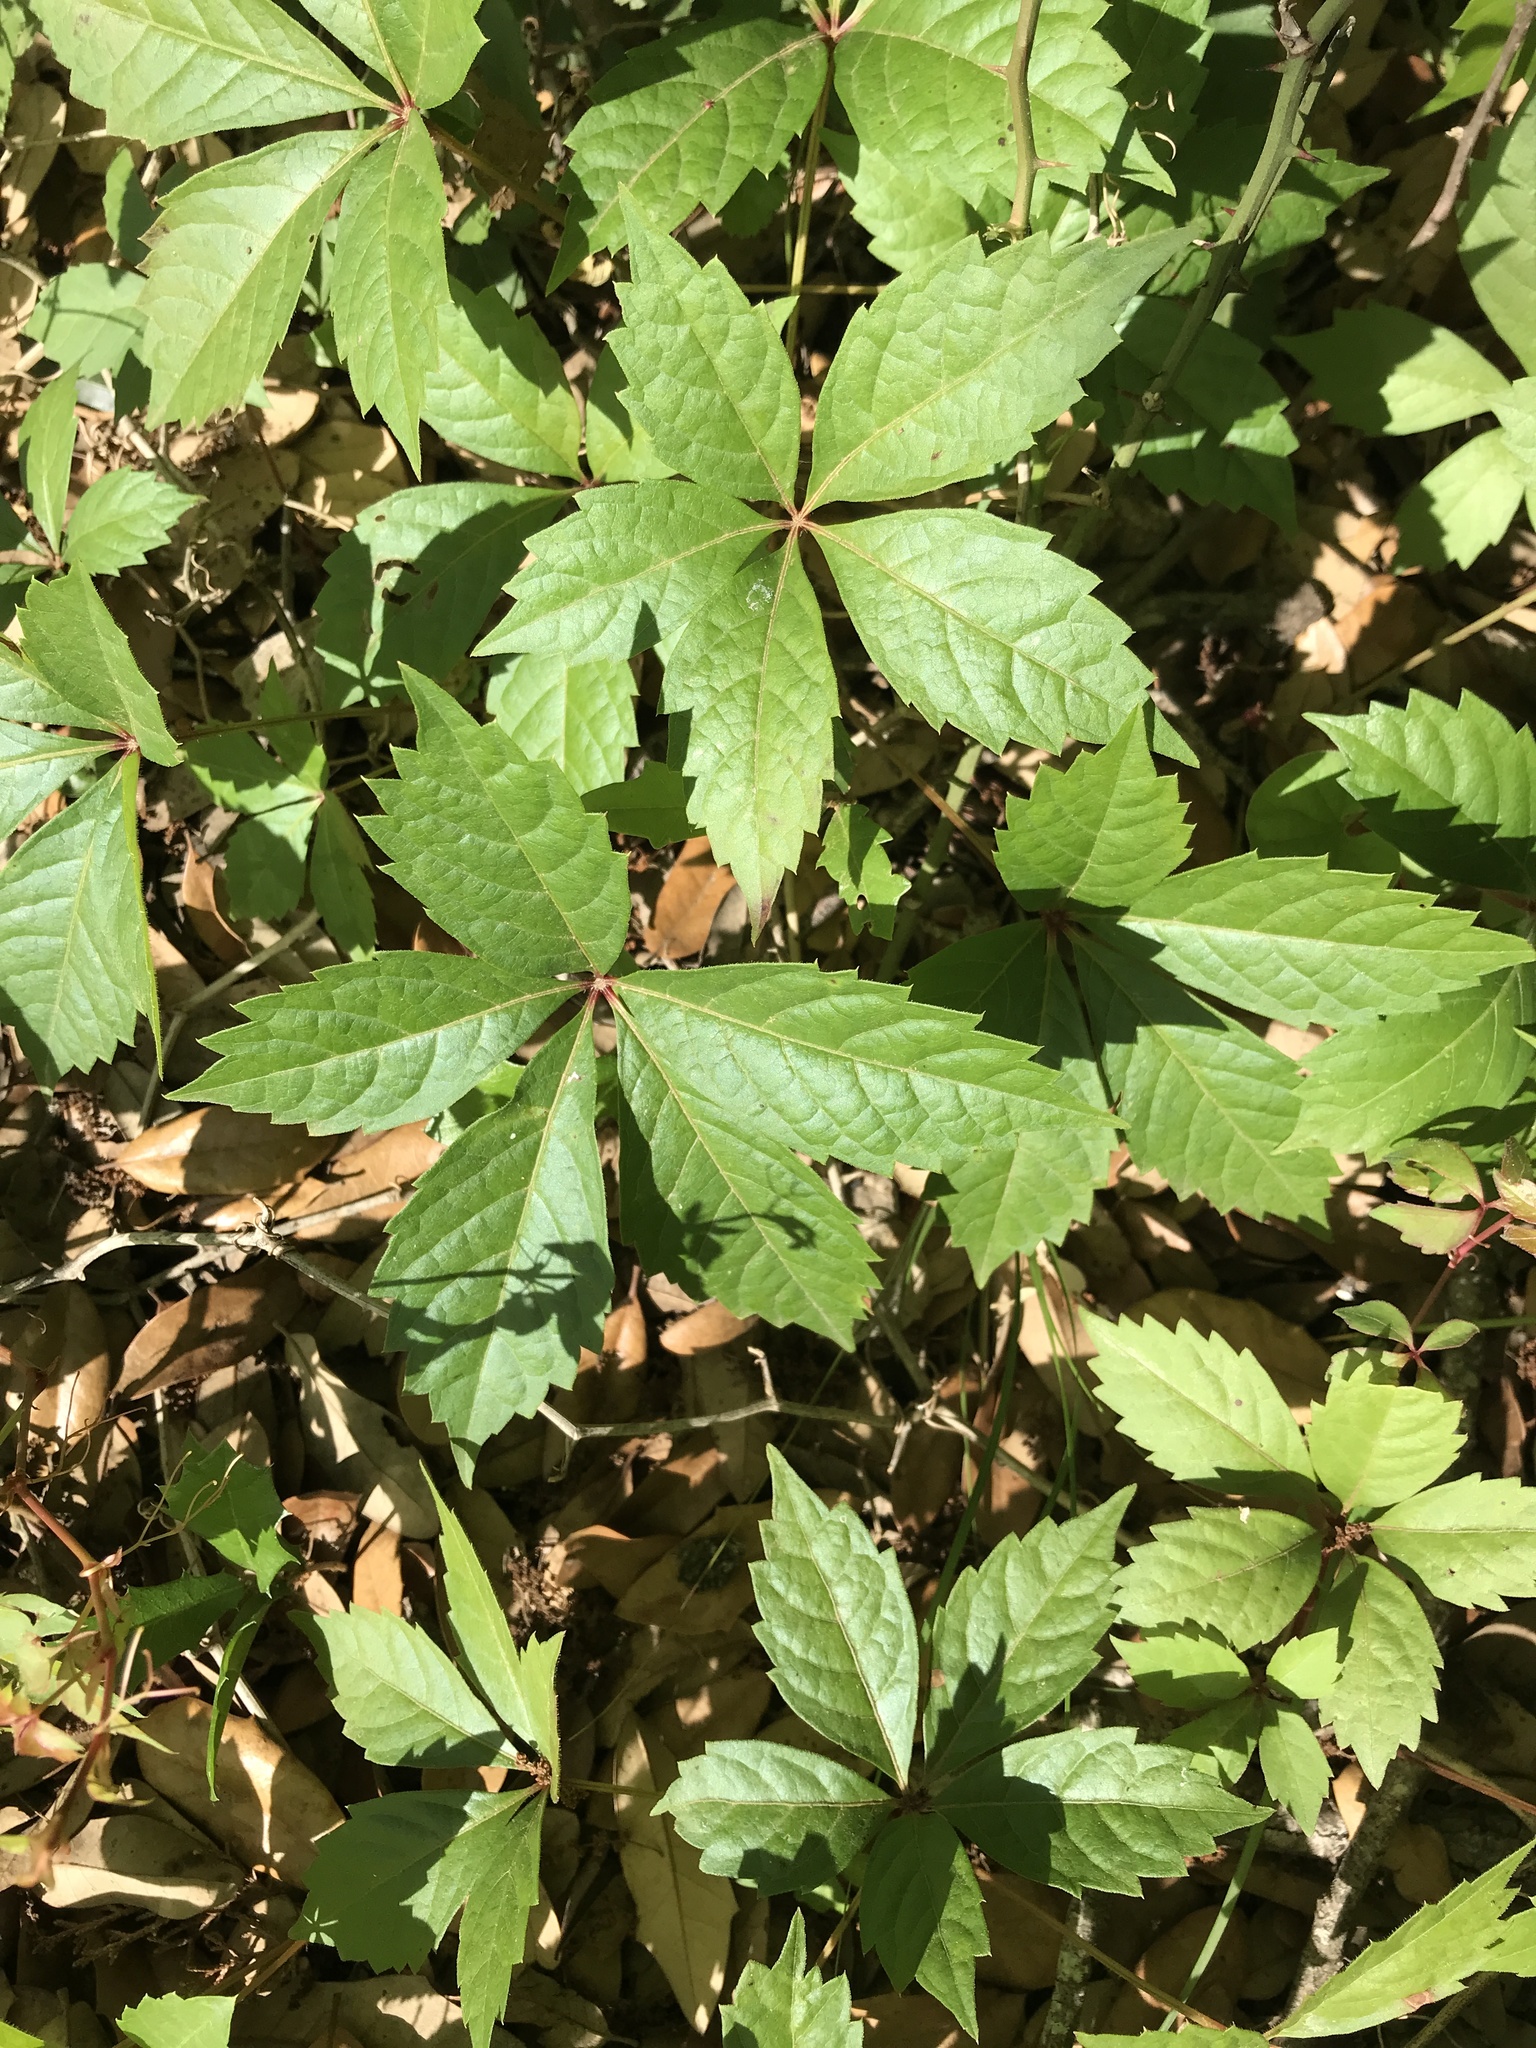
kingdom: Plantae
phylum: Tracheophyta
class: Magnoliopsida
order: Vitales
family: Vitaceae
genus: Parthenocissus
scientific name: Parthenocissus quinquefolia
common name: Virginia-creeper
